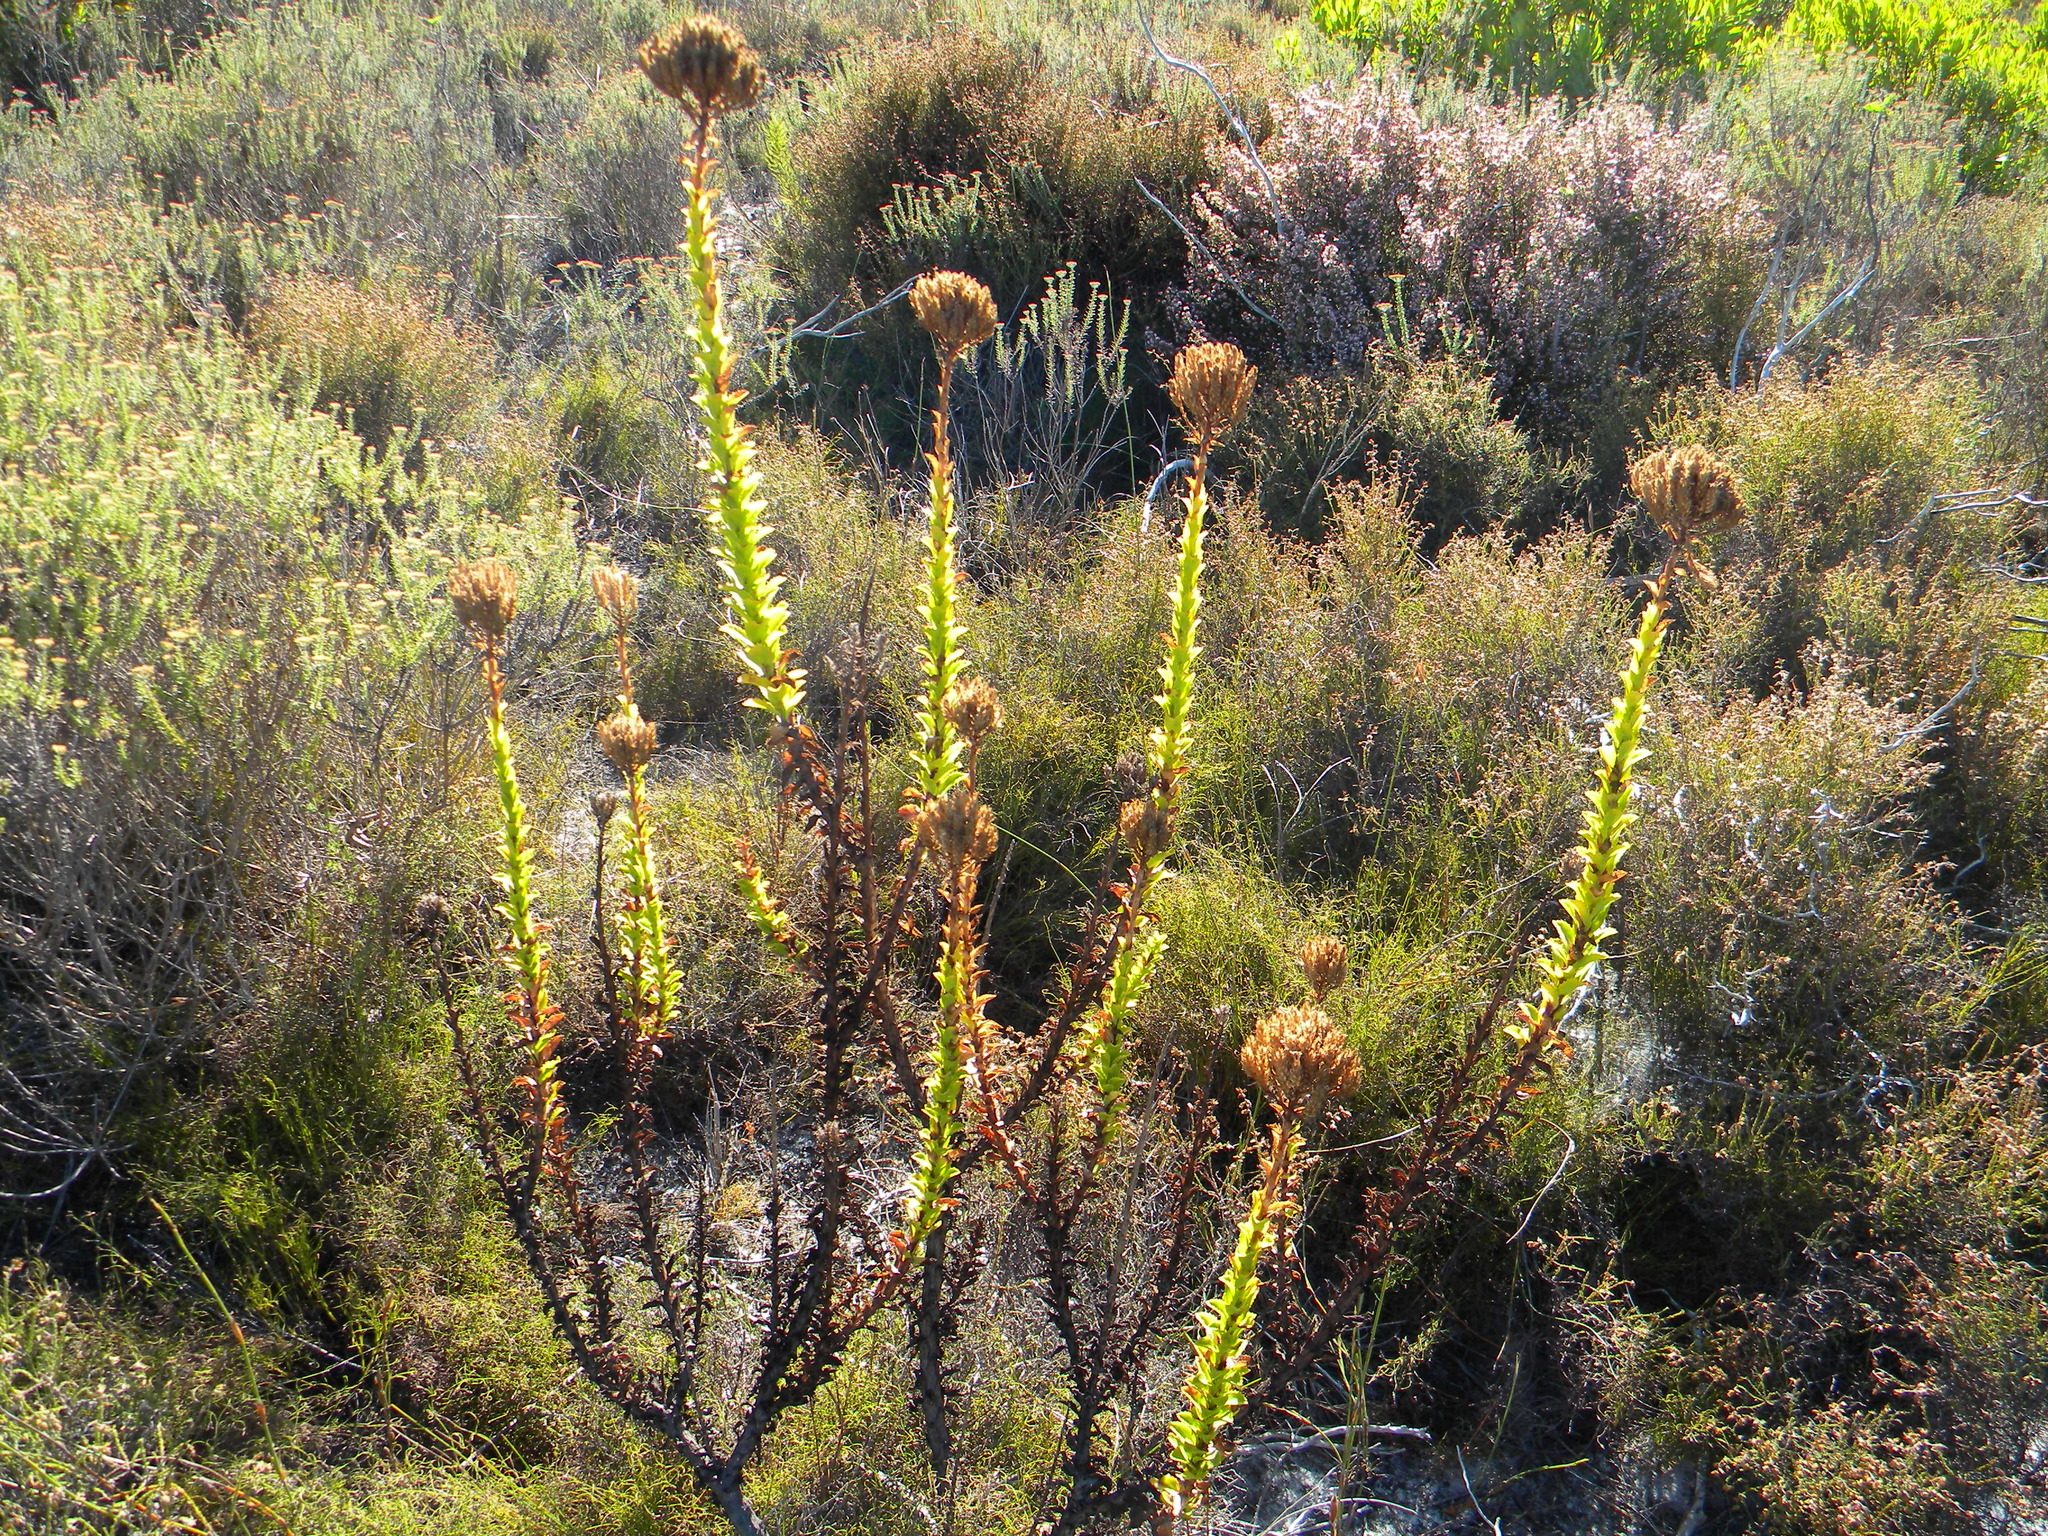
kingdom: Plantae
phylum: Tracheophyta
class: Magnoliopsida
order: Lamiales
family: Scrophulariaceae
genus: Pseudoselago
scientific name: Pseudoselago serrata
